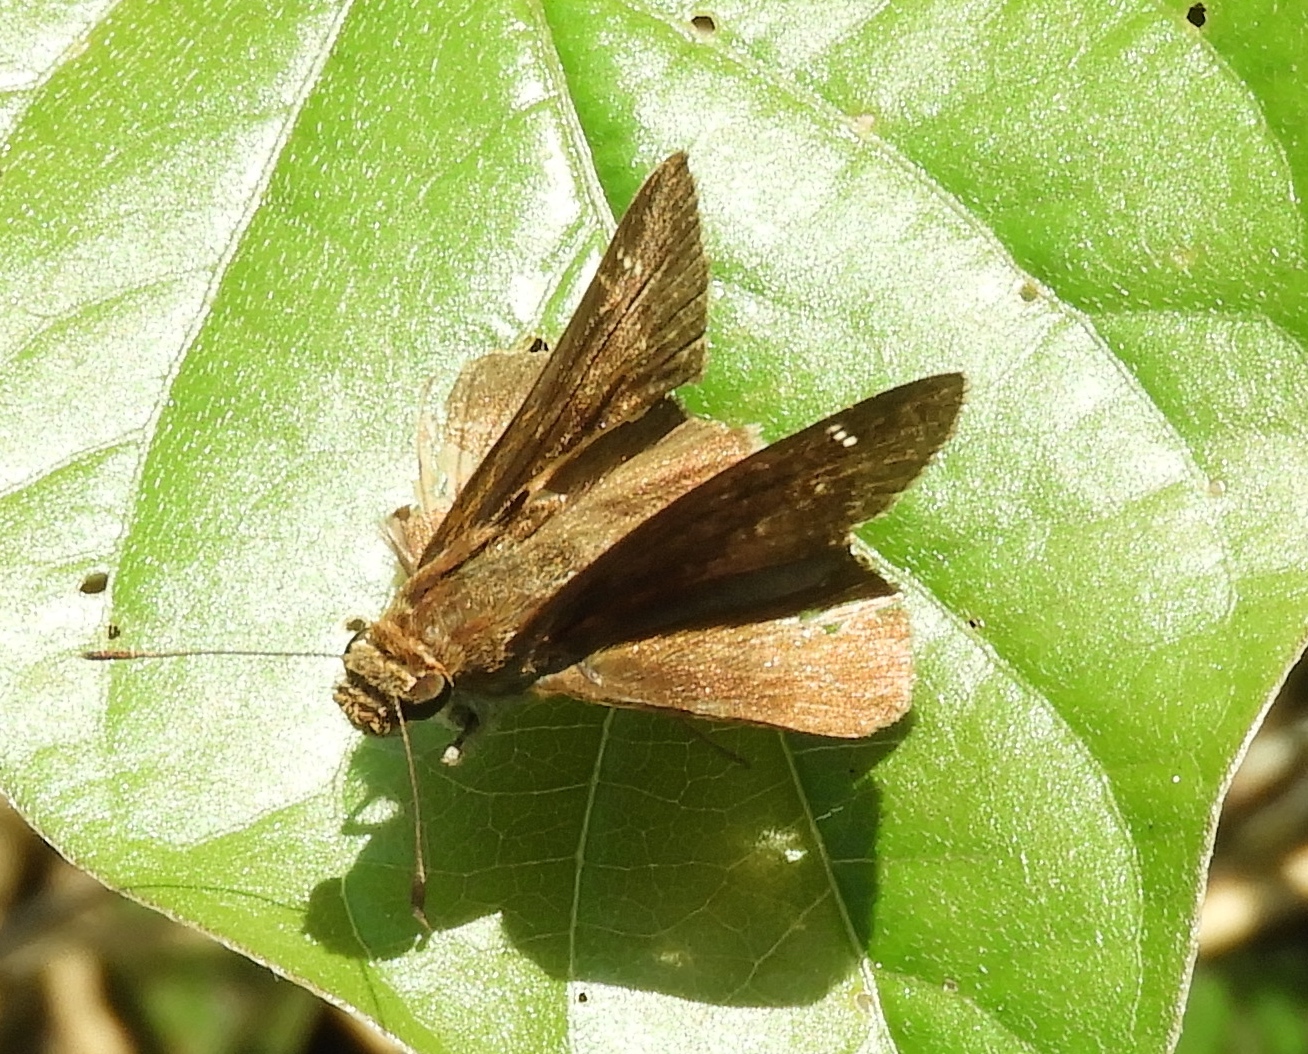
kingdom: Animalia
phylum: Arthropoda
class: Insecta
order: Lepidoptera
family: Hesperiidae
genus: Lerema
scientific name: Lerema accius
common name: Clouded skipper
